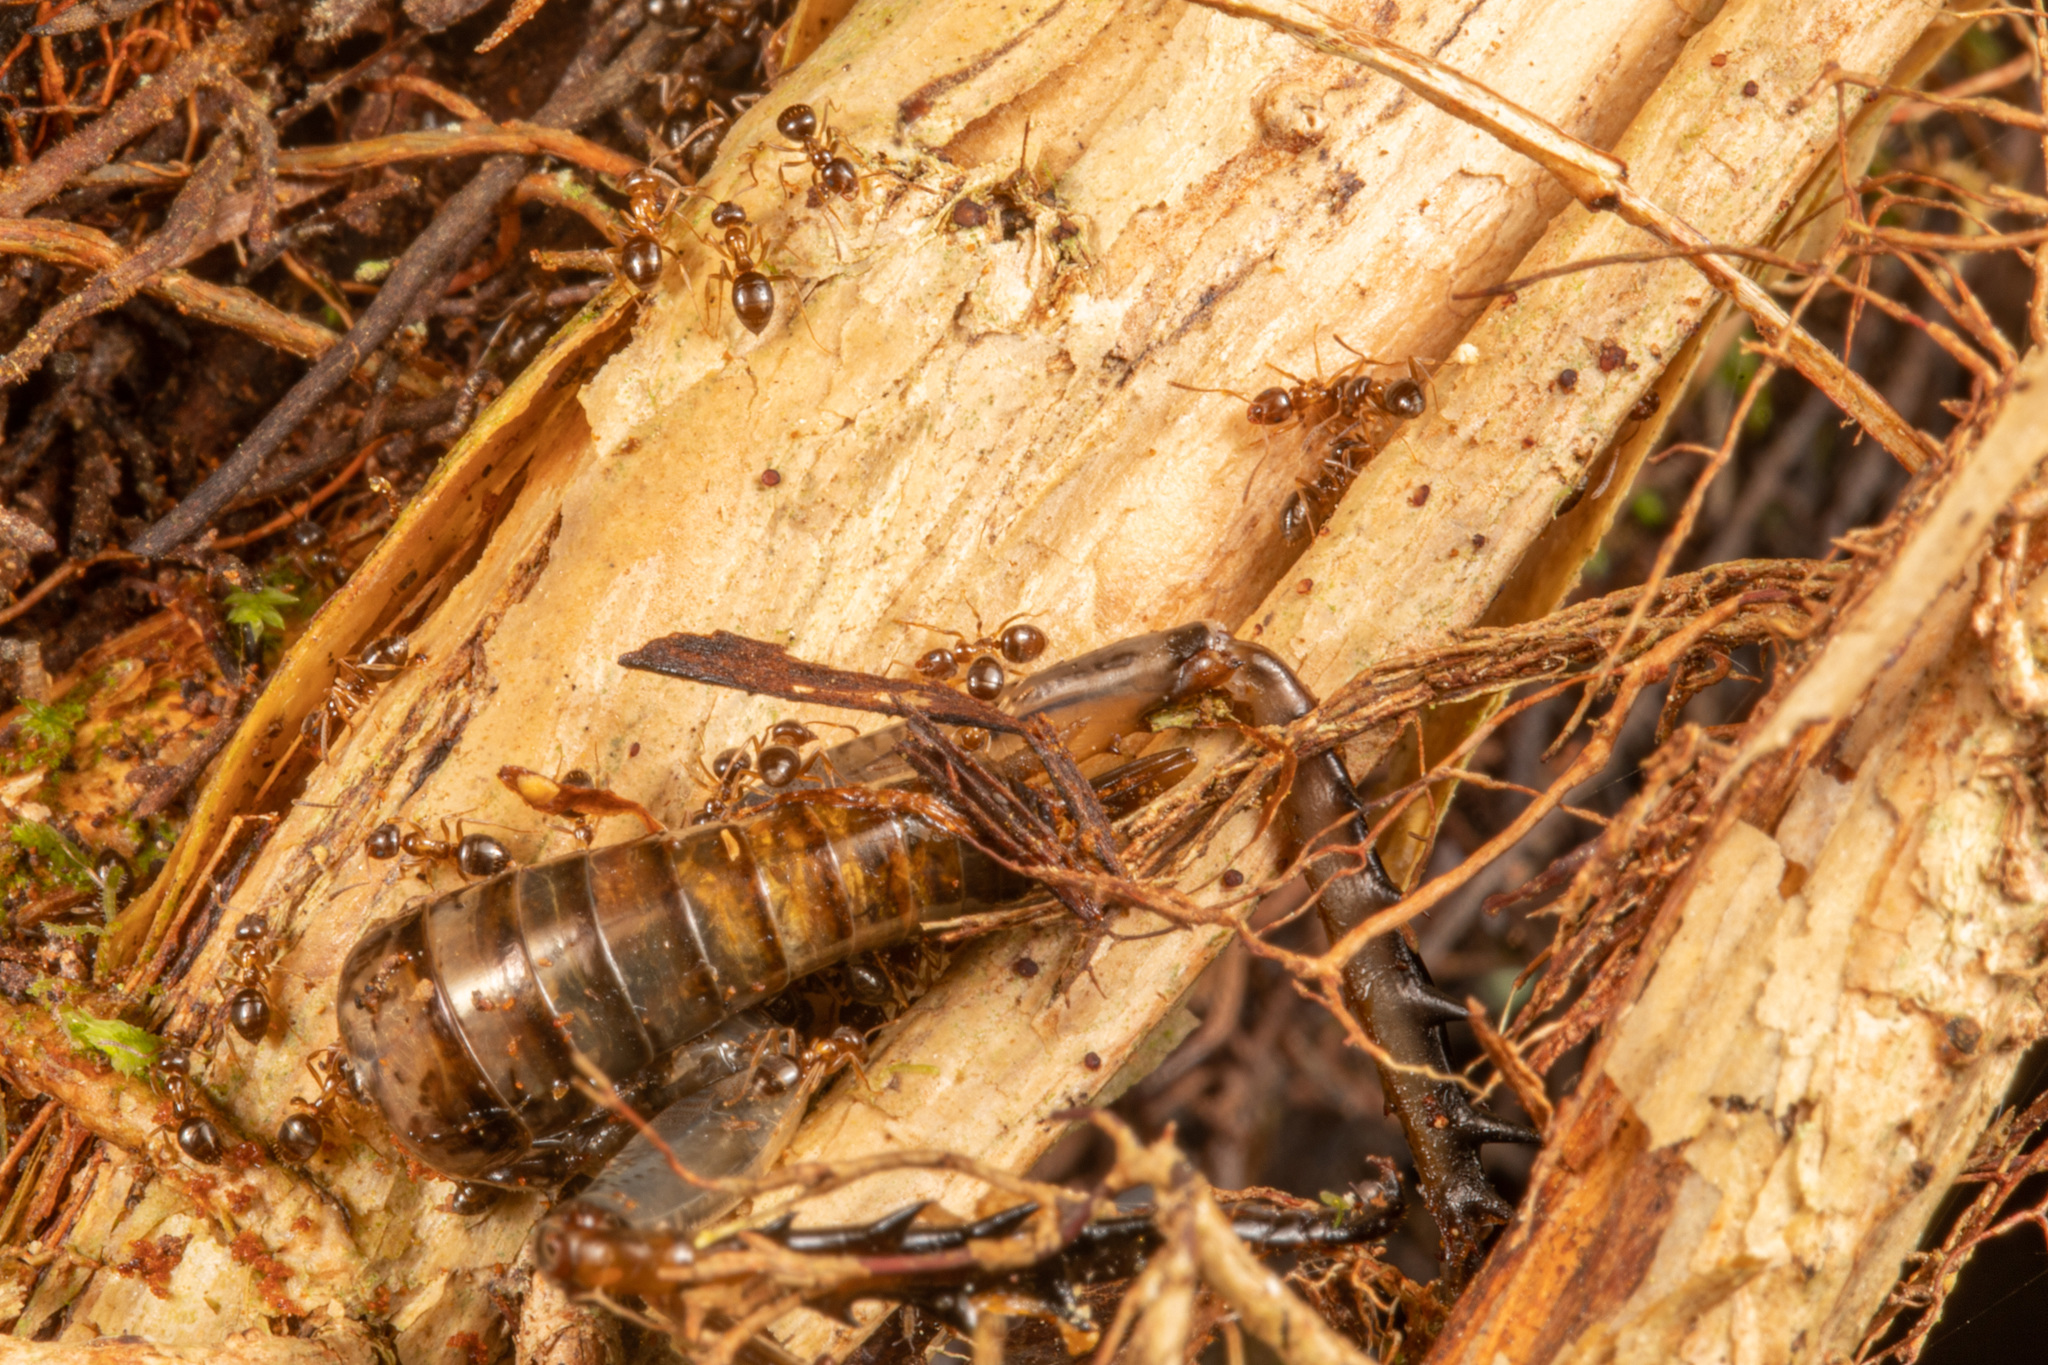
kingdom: Animalia
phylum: Arthropoda
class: Insecta
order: Hymenoptera
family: Formicidae
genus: Prolasius
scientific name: Prolasius advenus
